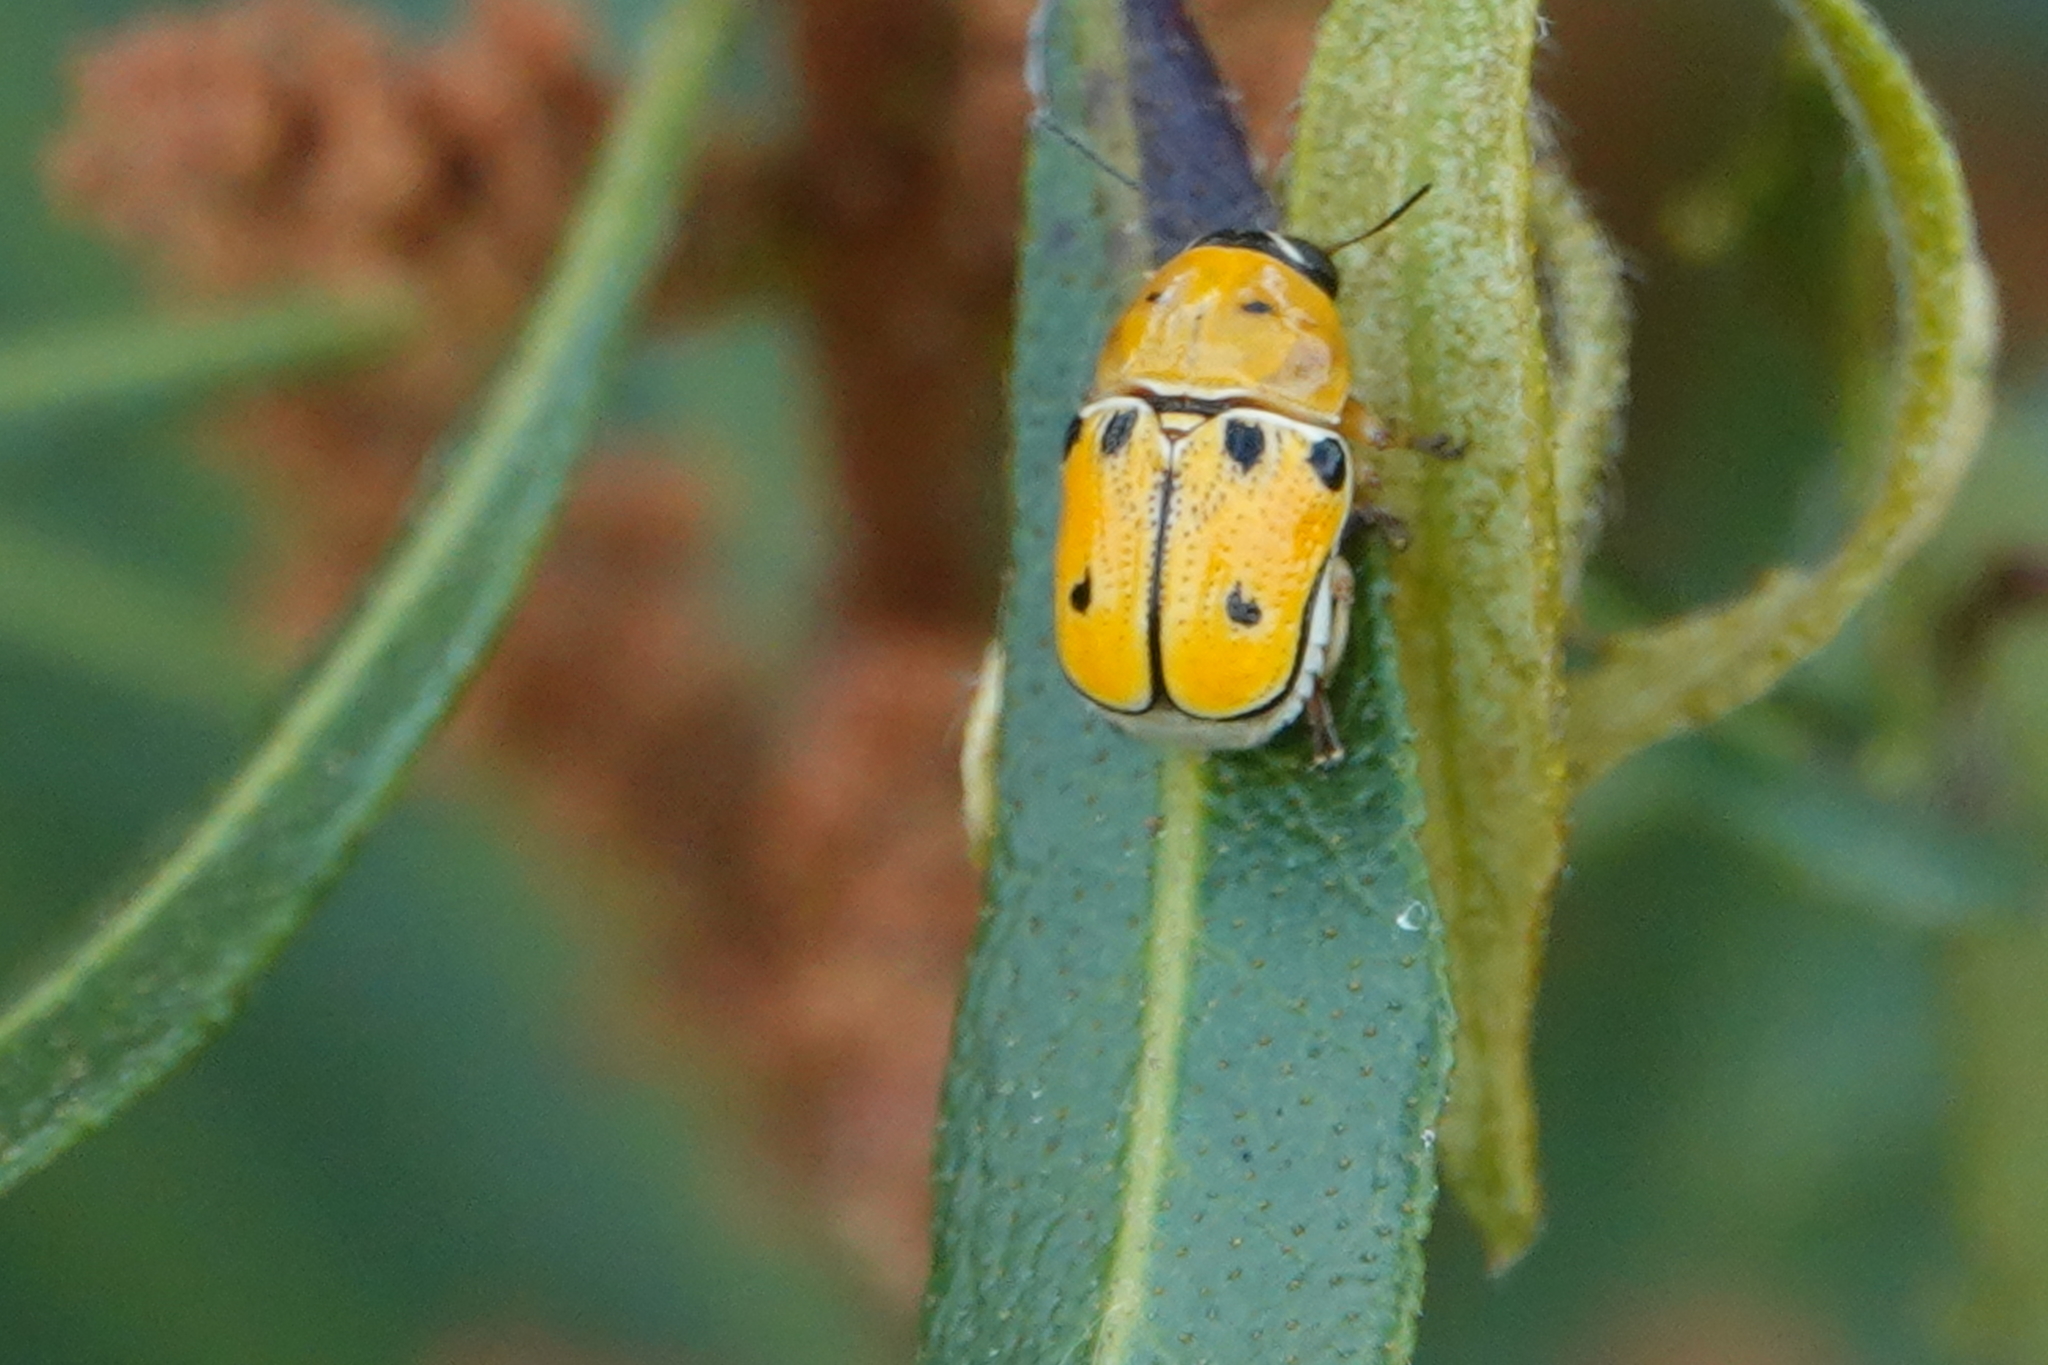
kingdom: Animalia
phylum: Arthropoda
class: Insecta
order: Coleoptera
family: Chrysomelidae
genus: Griburius
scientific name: Griburius larvatus
